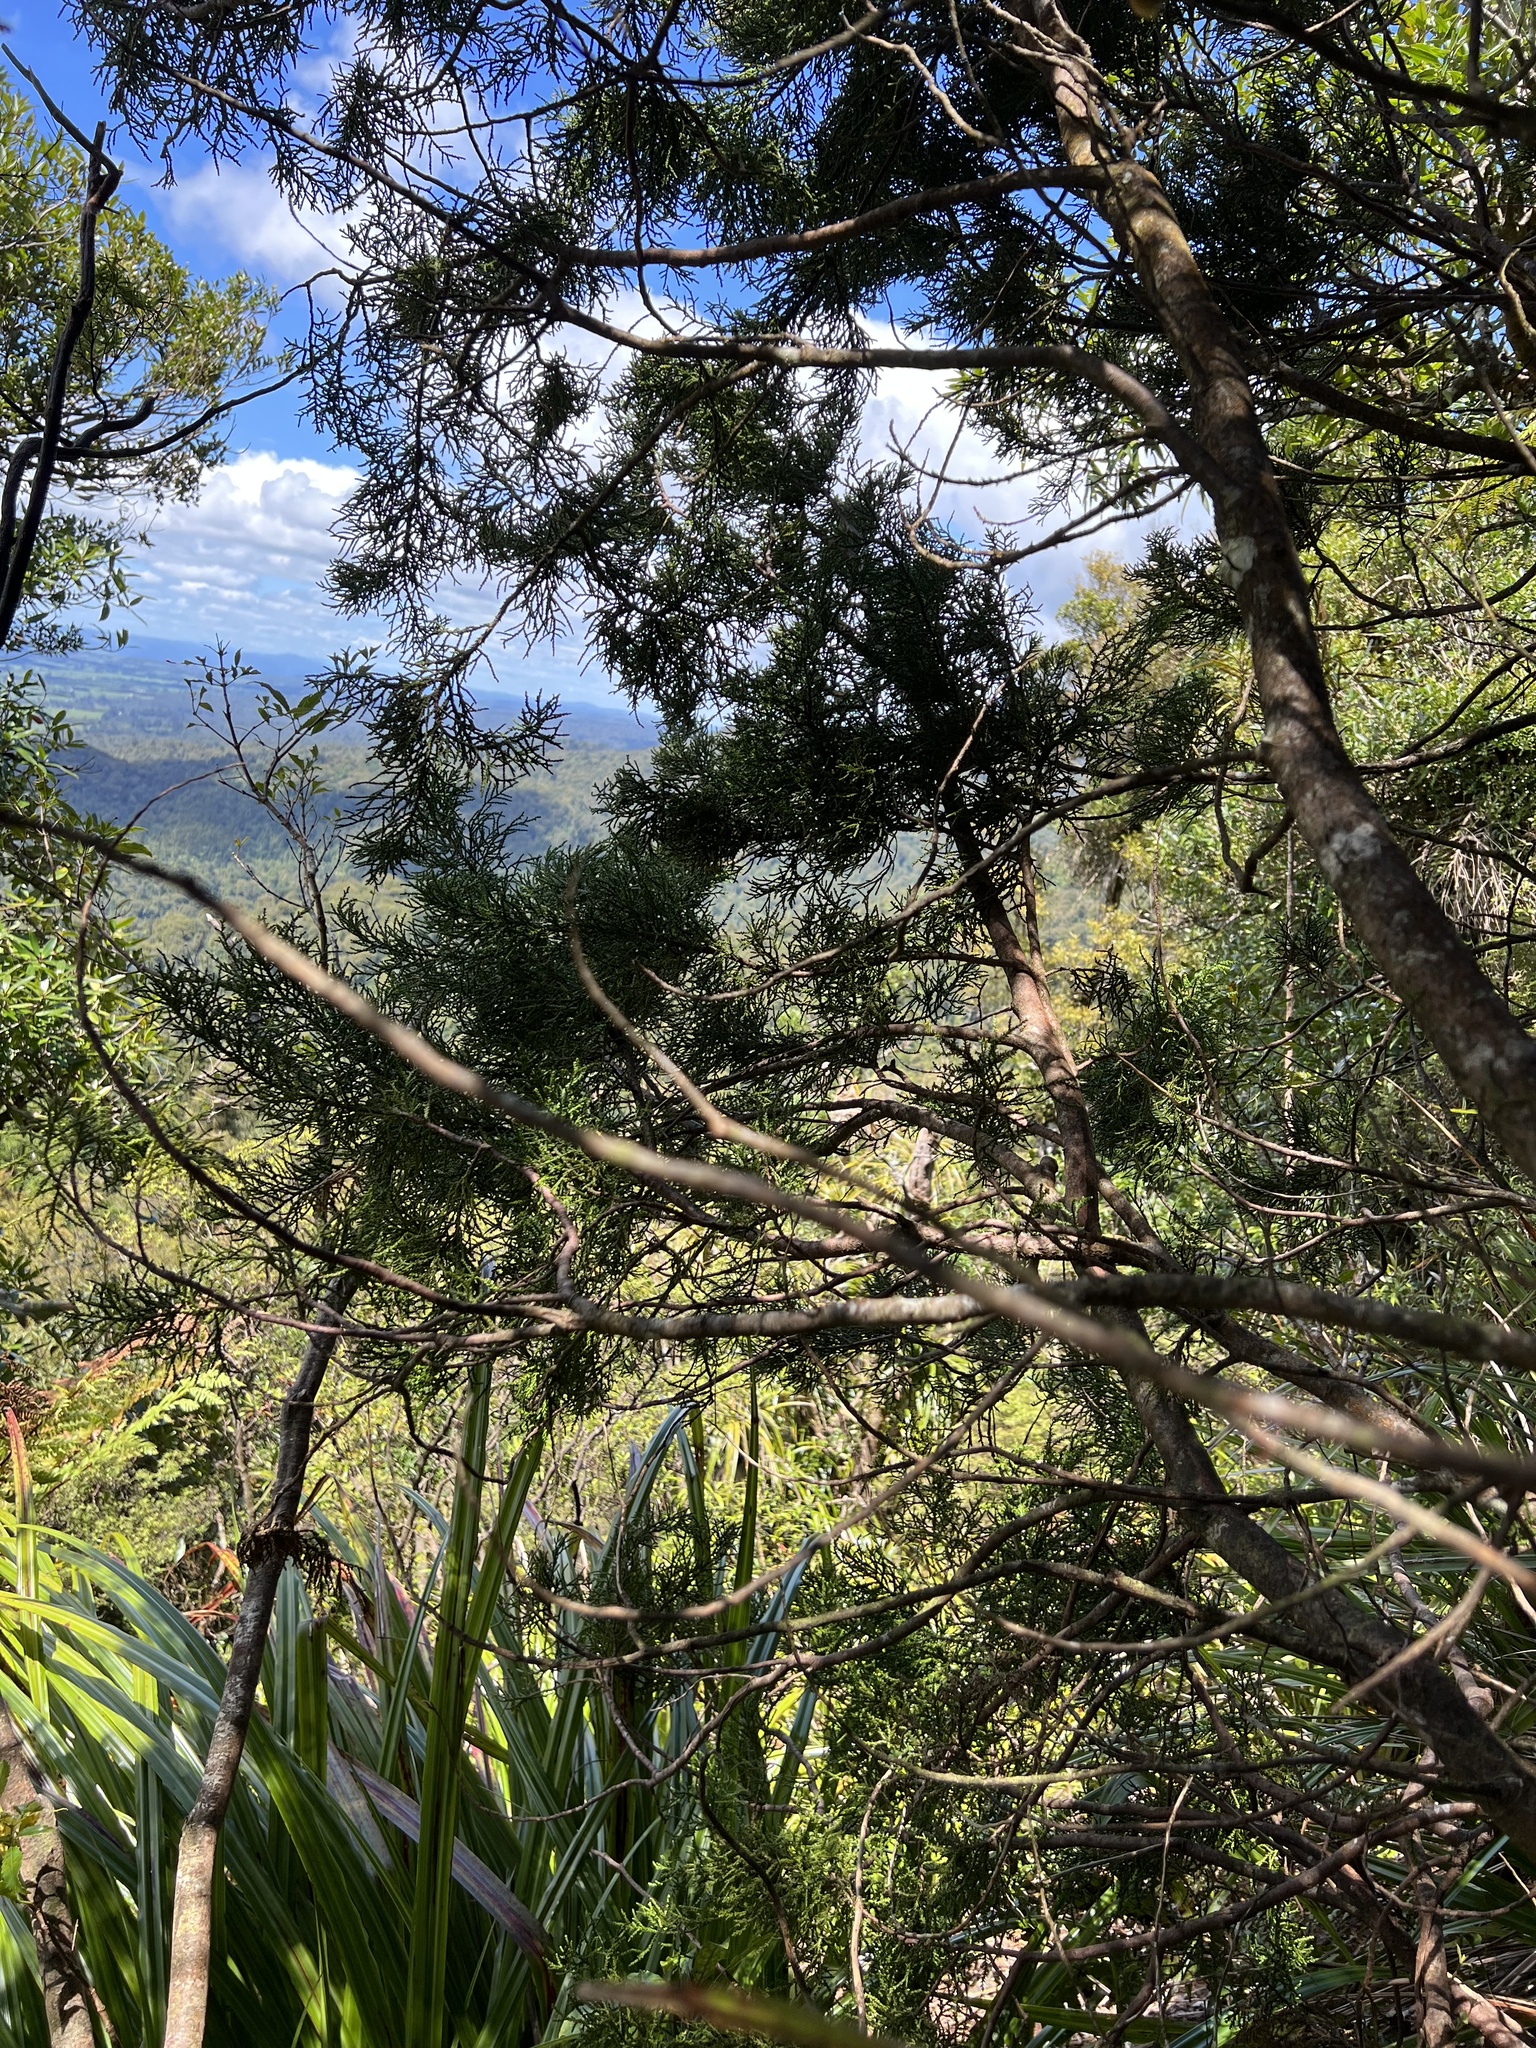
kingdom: Plantae
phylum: Tracheophyta
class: Pinopsida
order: Pinales
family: Podocarpaceae
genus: Lepidothamnus
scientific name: Lepidothamnus intermedius
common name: Yellow silver pine
